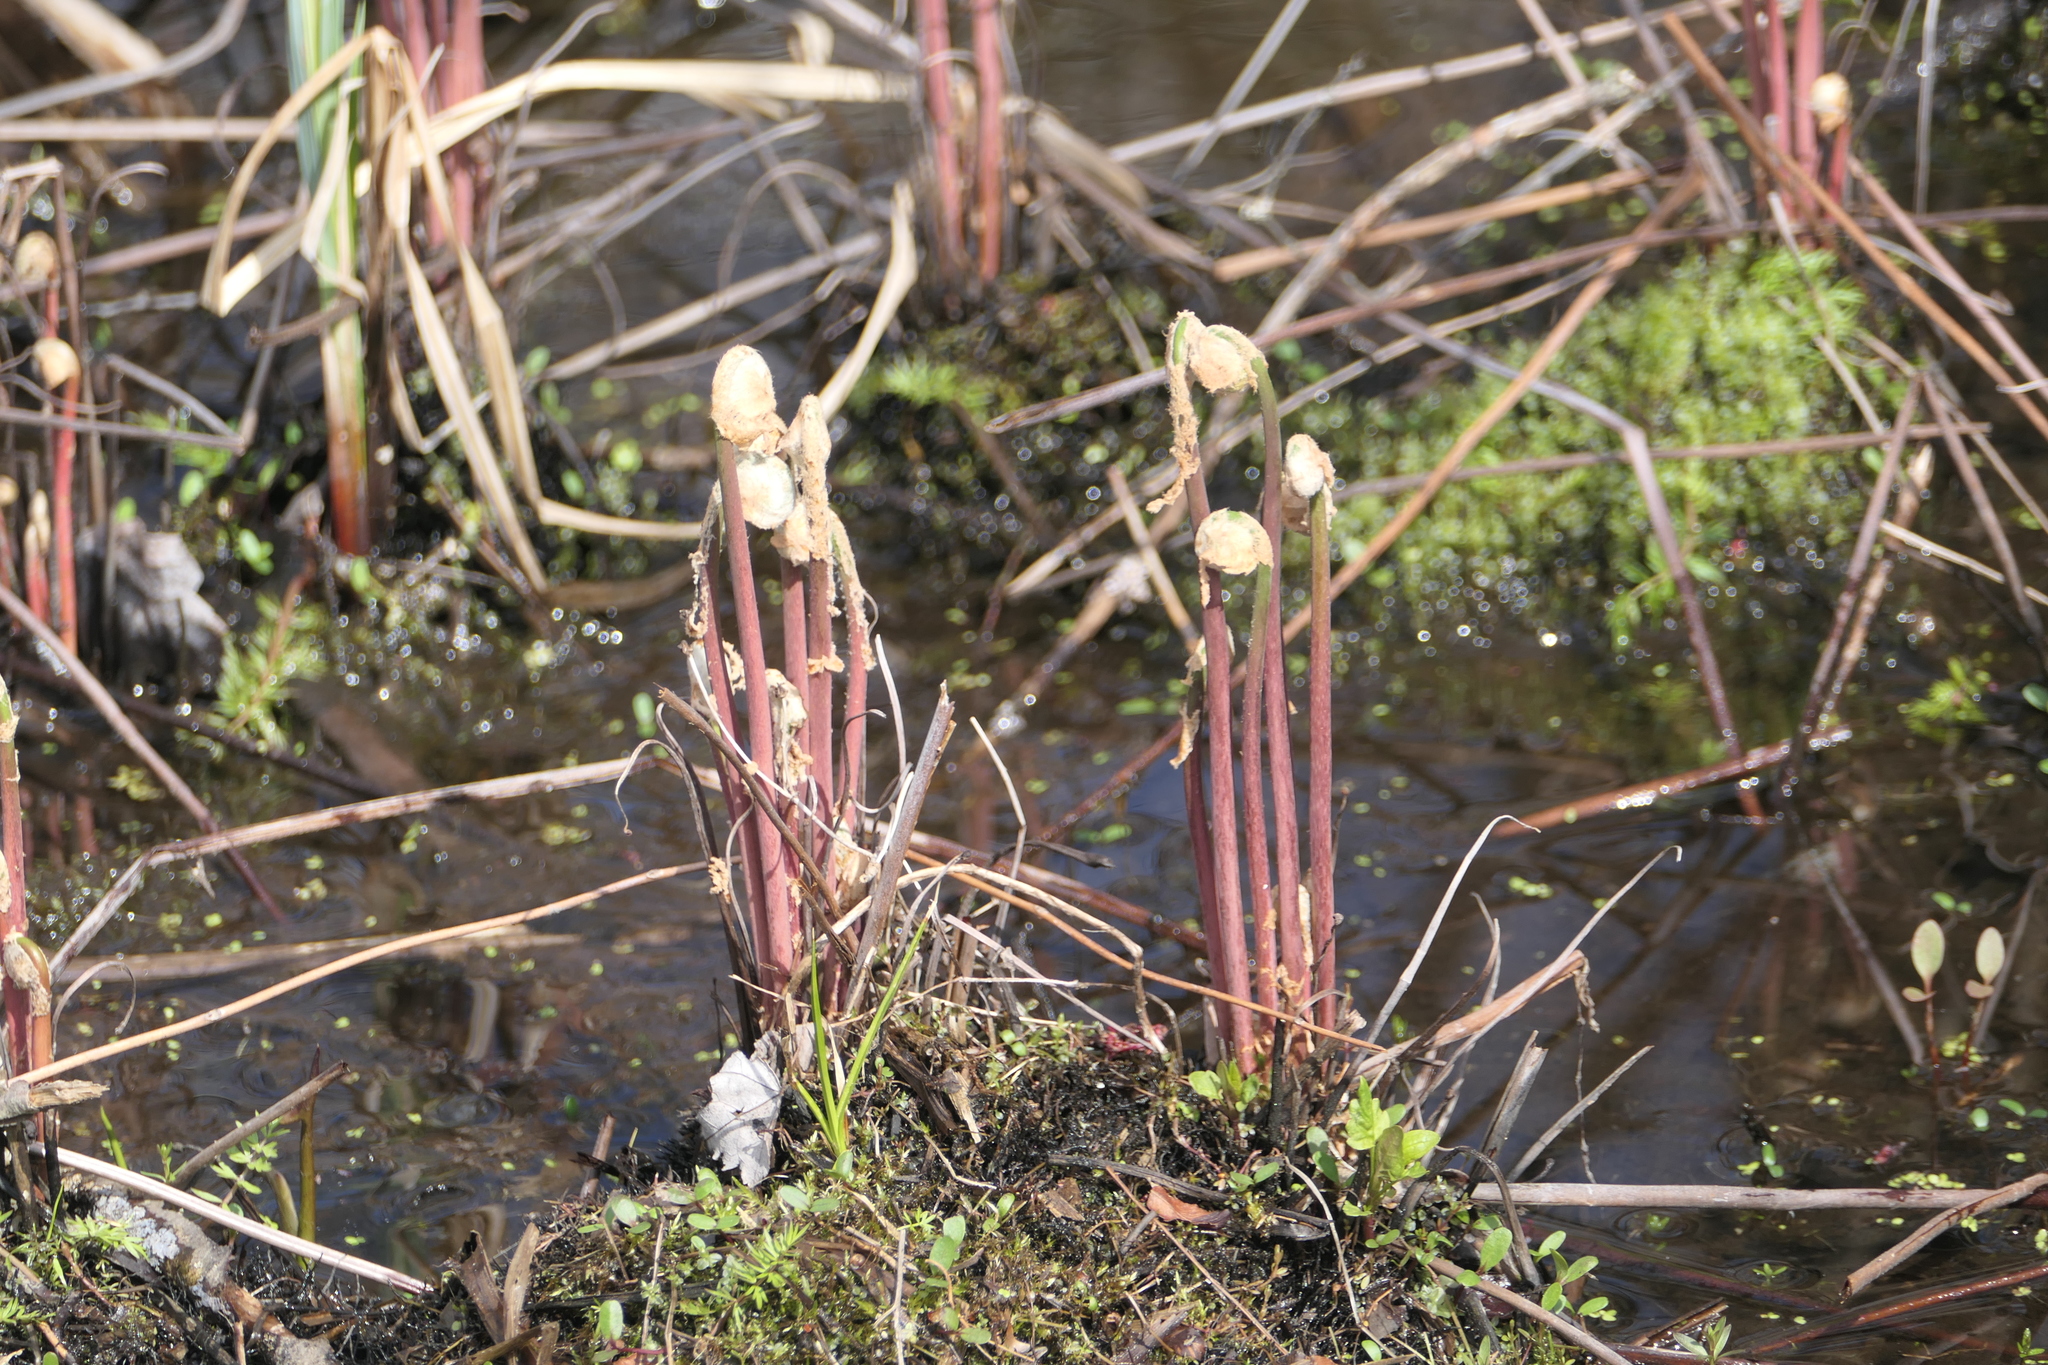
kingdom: Plantae
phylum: Tracheophyta
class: Polypodiopsida
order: Osmundales
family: Osmundaceae
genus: Osmunda
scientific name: Osmunda spectabilis
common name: American royal fern
